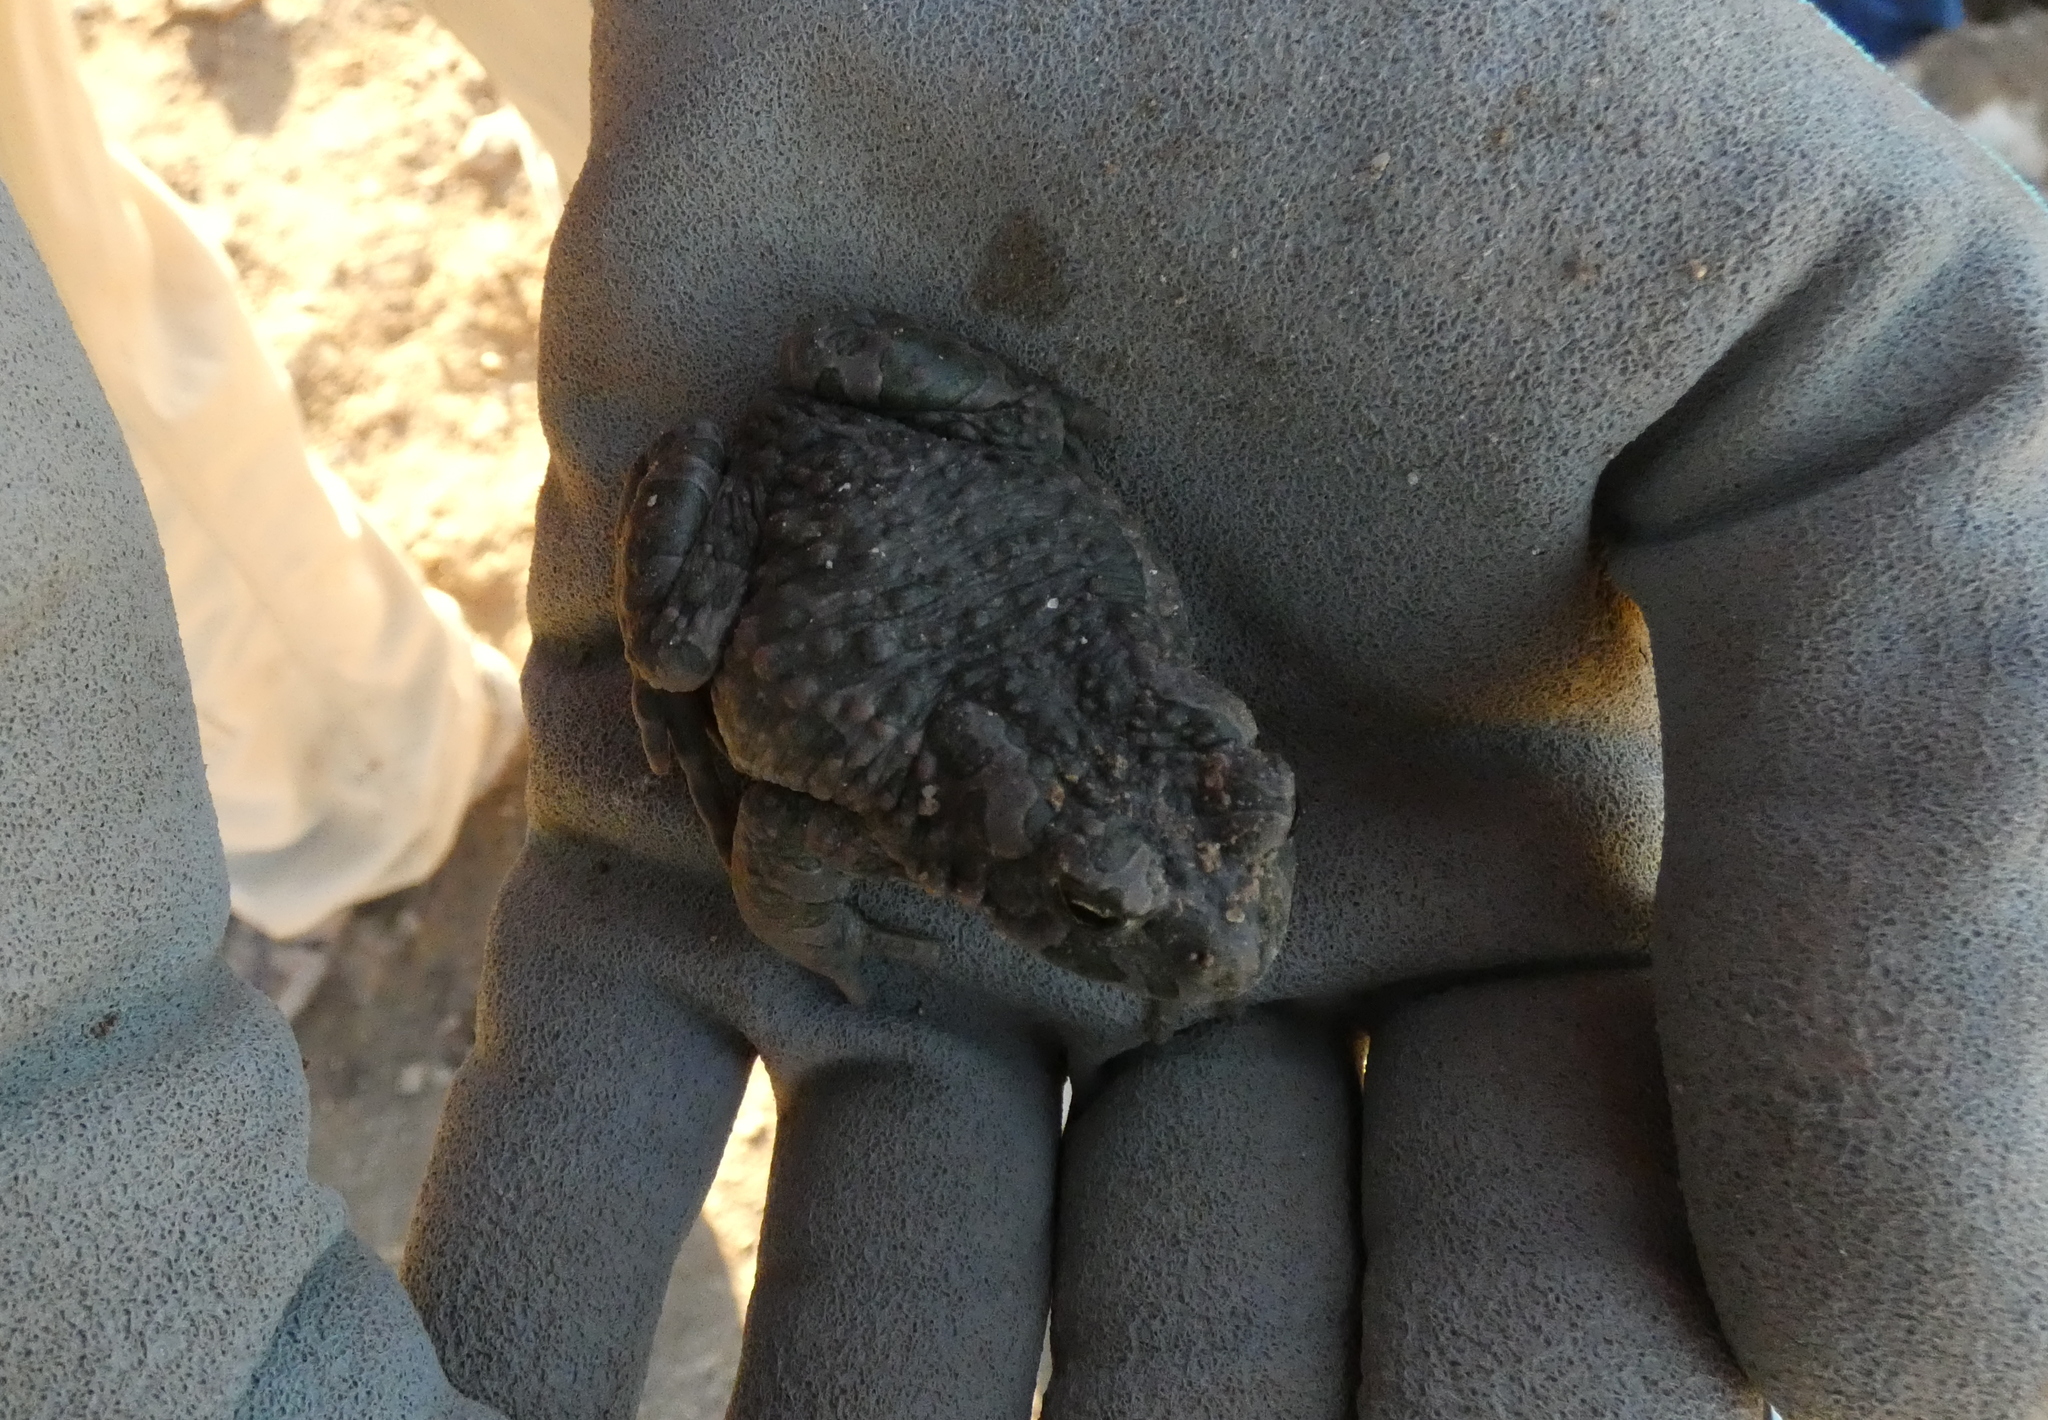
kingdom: Animalia
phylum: Chordata
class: Amphibia
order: Anura
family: Bufonidae
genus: Bufotes
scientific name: Bufotes viridis
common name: European green toad
